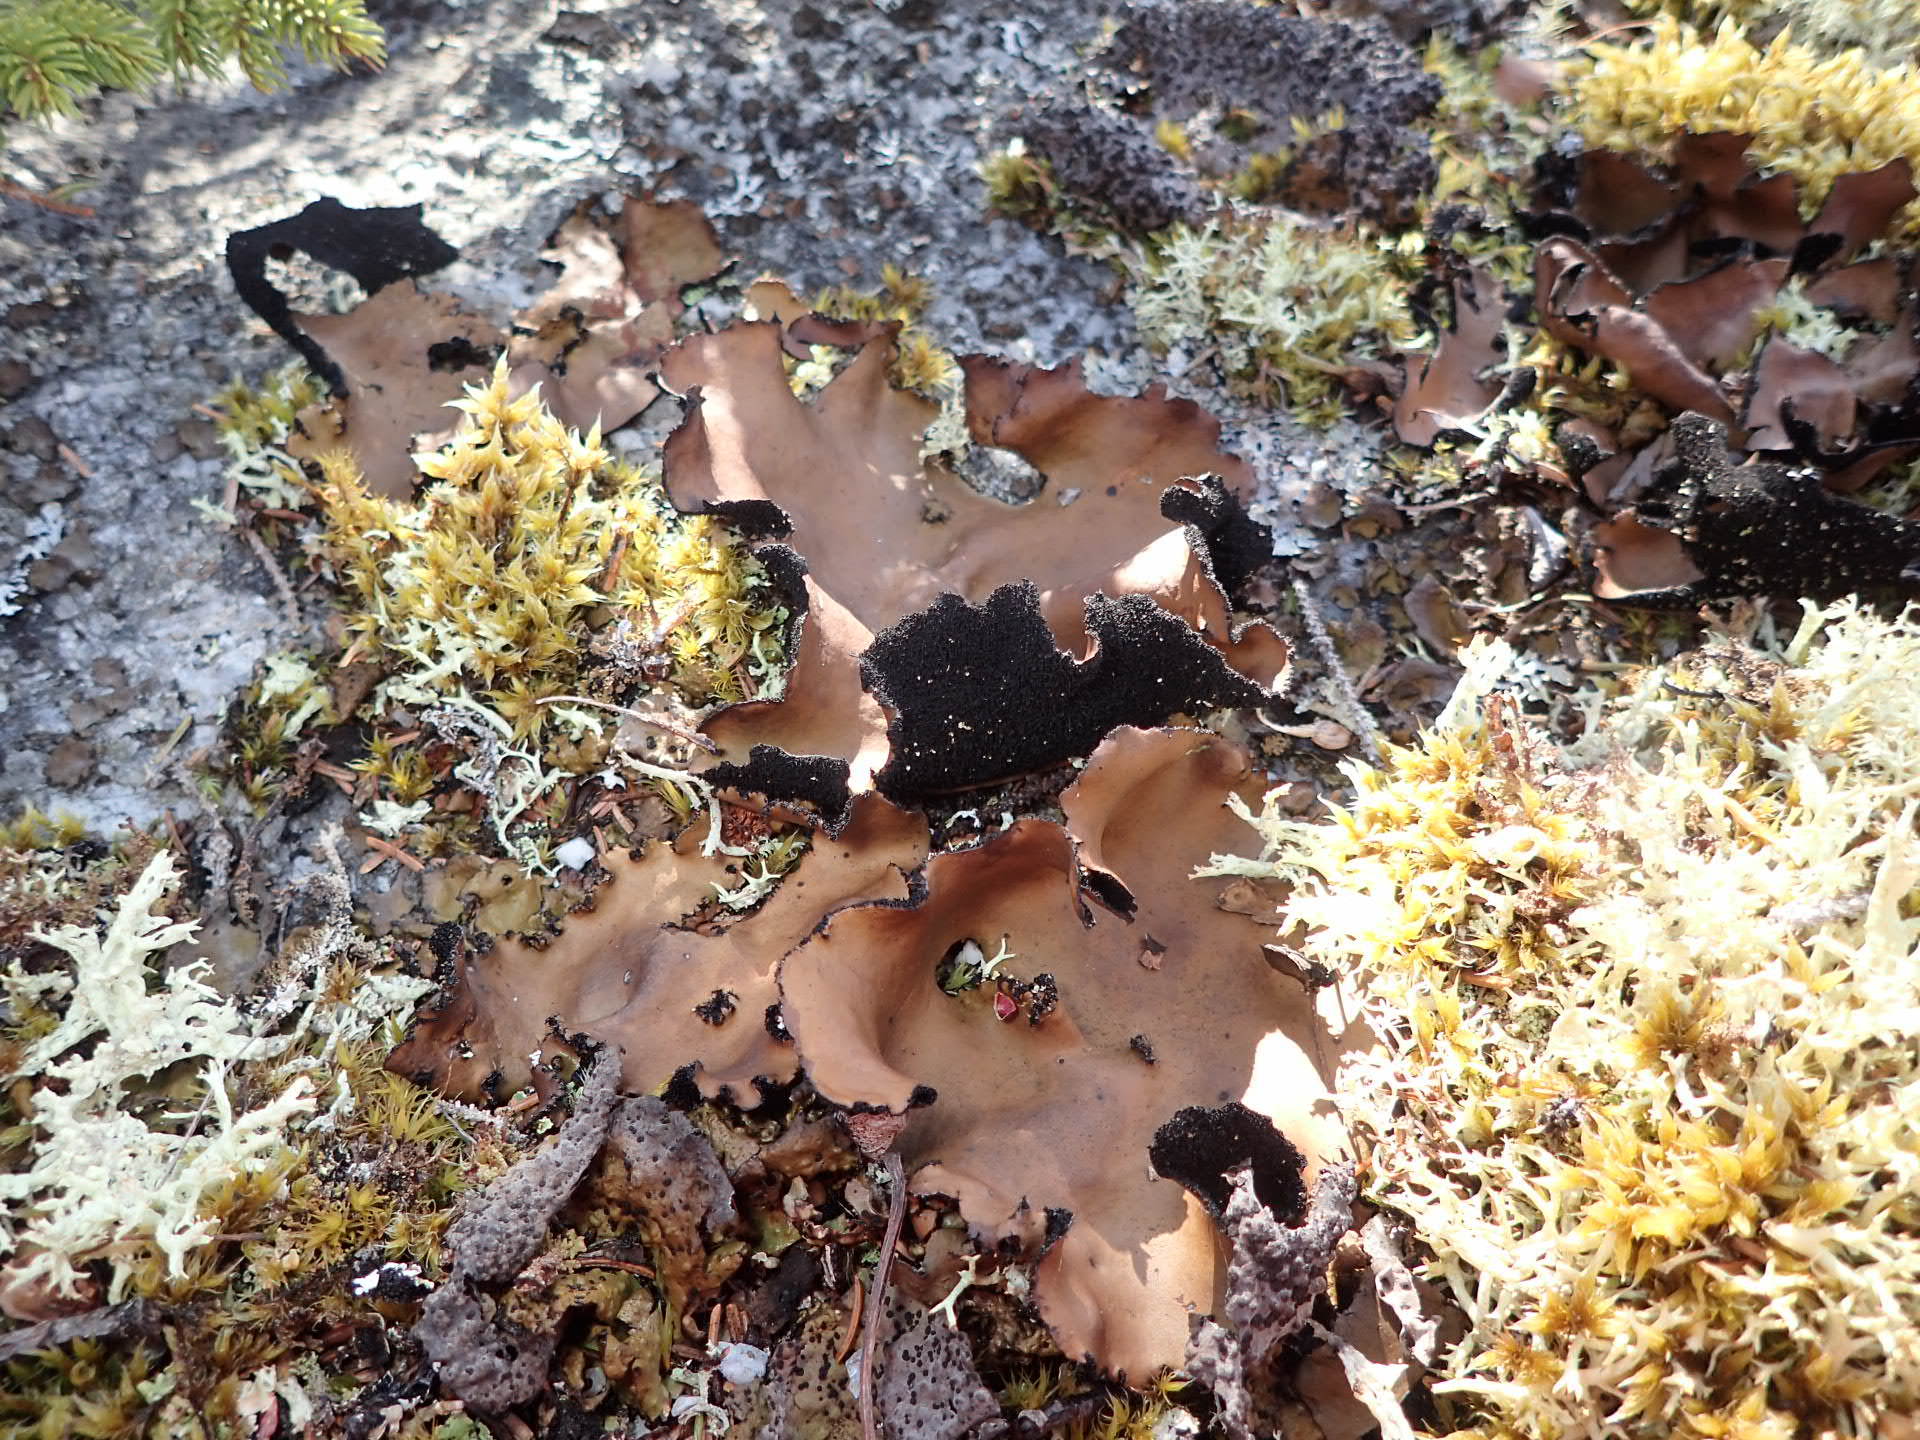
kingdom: Fungi
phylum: Ascomycota
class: Lecanoromycetes
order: Umbilicariales
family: Umbilicariaceae
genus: Umbilicaria
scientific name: Umbilicaria mammulata
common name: Smooth rock tripe
